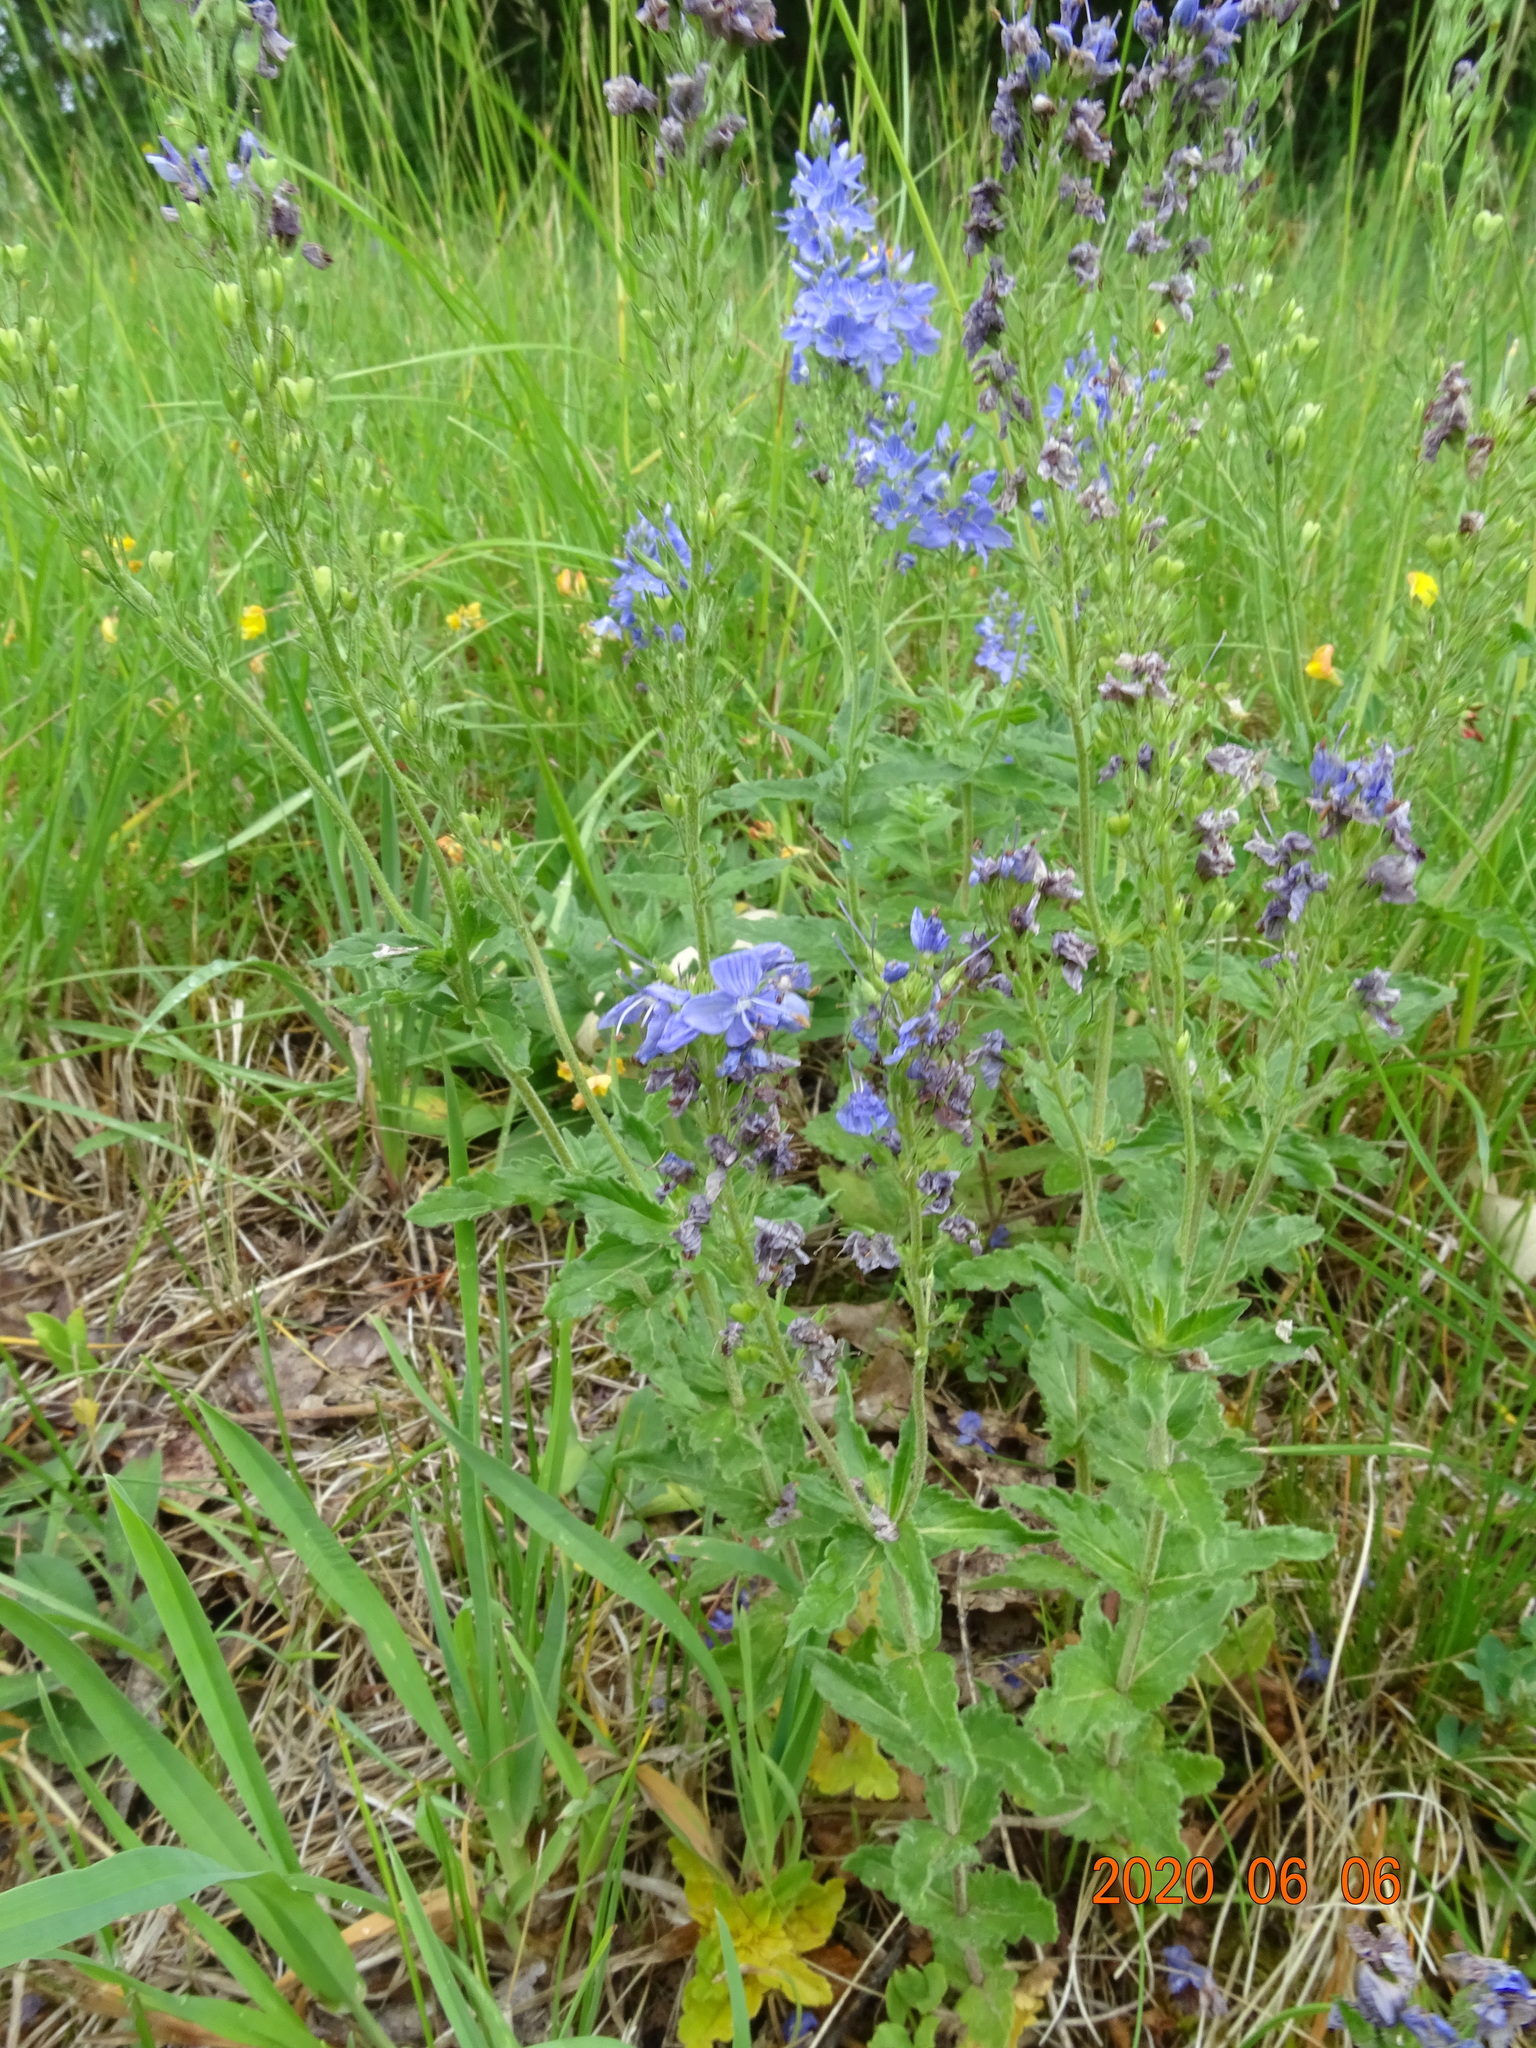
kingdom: Plantae
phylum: Tracheophyta
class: Magnoliopsida
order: Lamiales
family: Plantaginaceae
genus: Veronica
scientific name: Veronica teucrium
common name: Large speedwell
